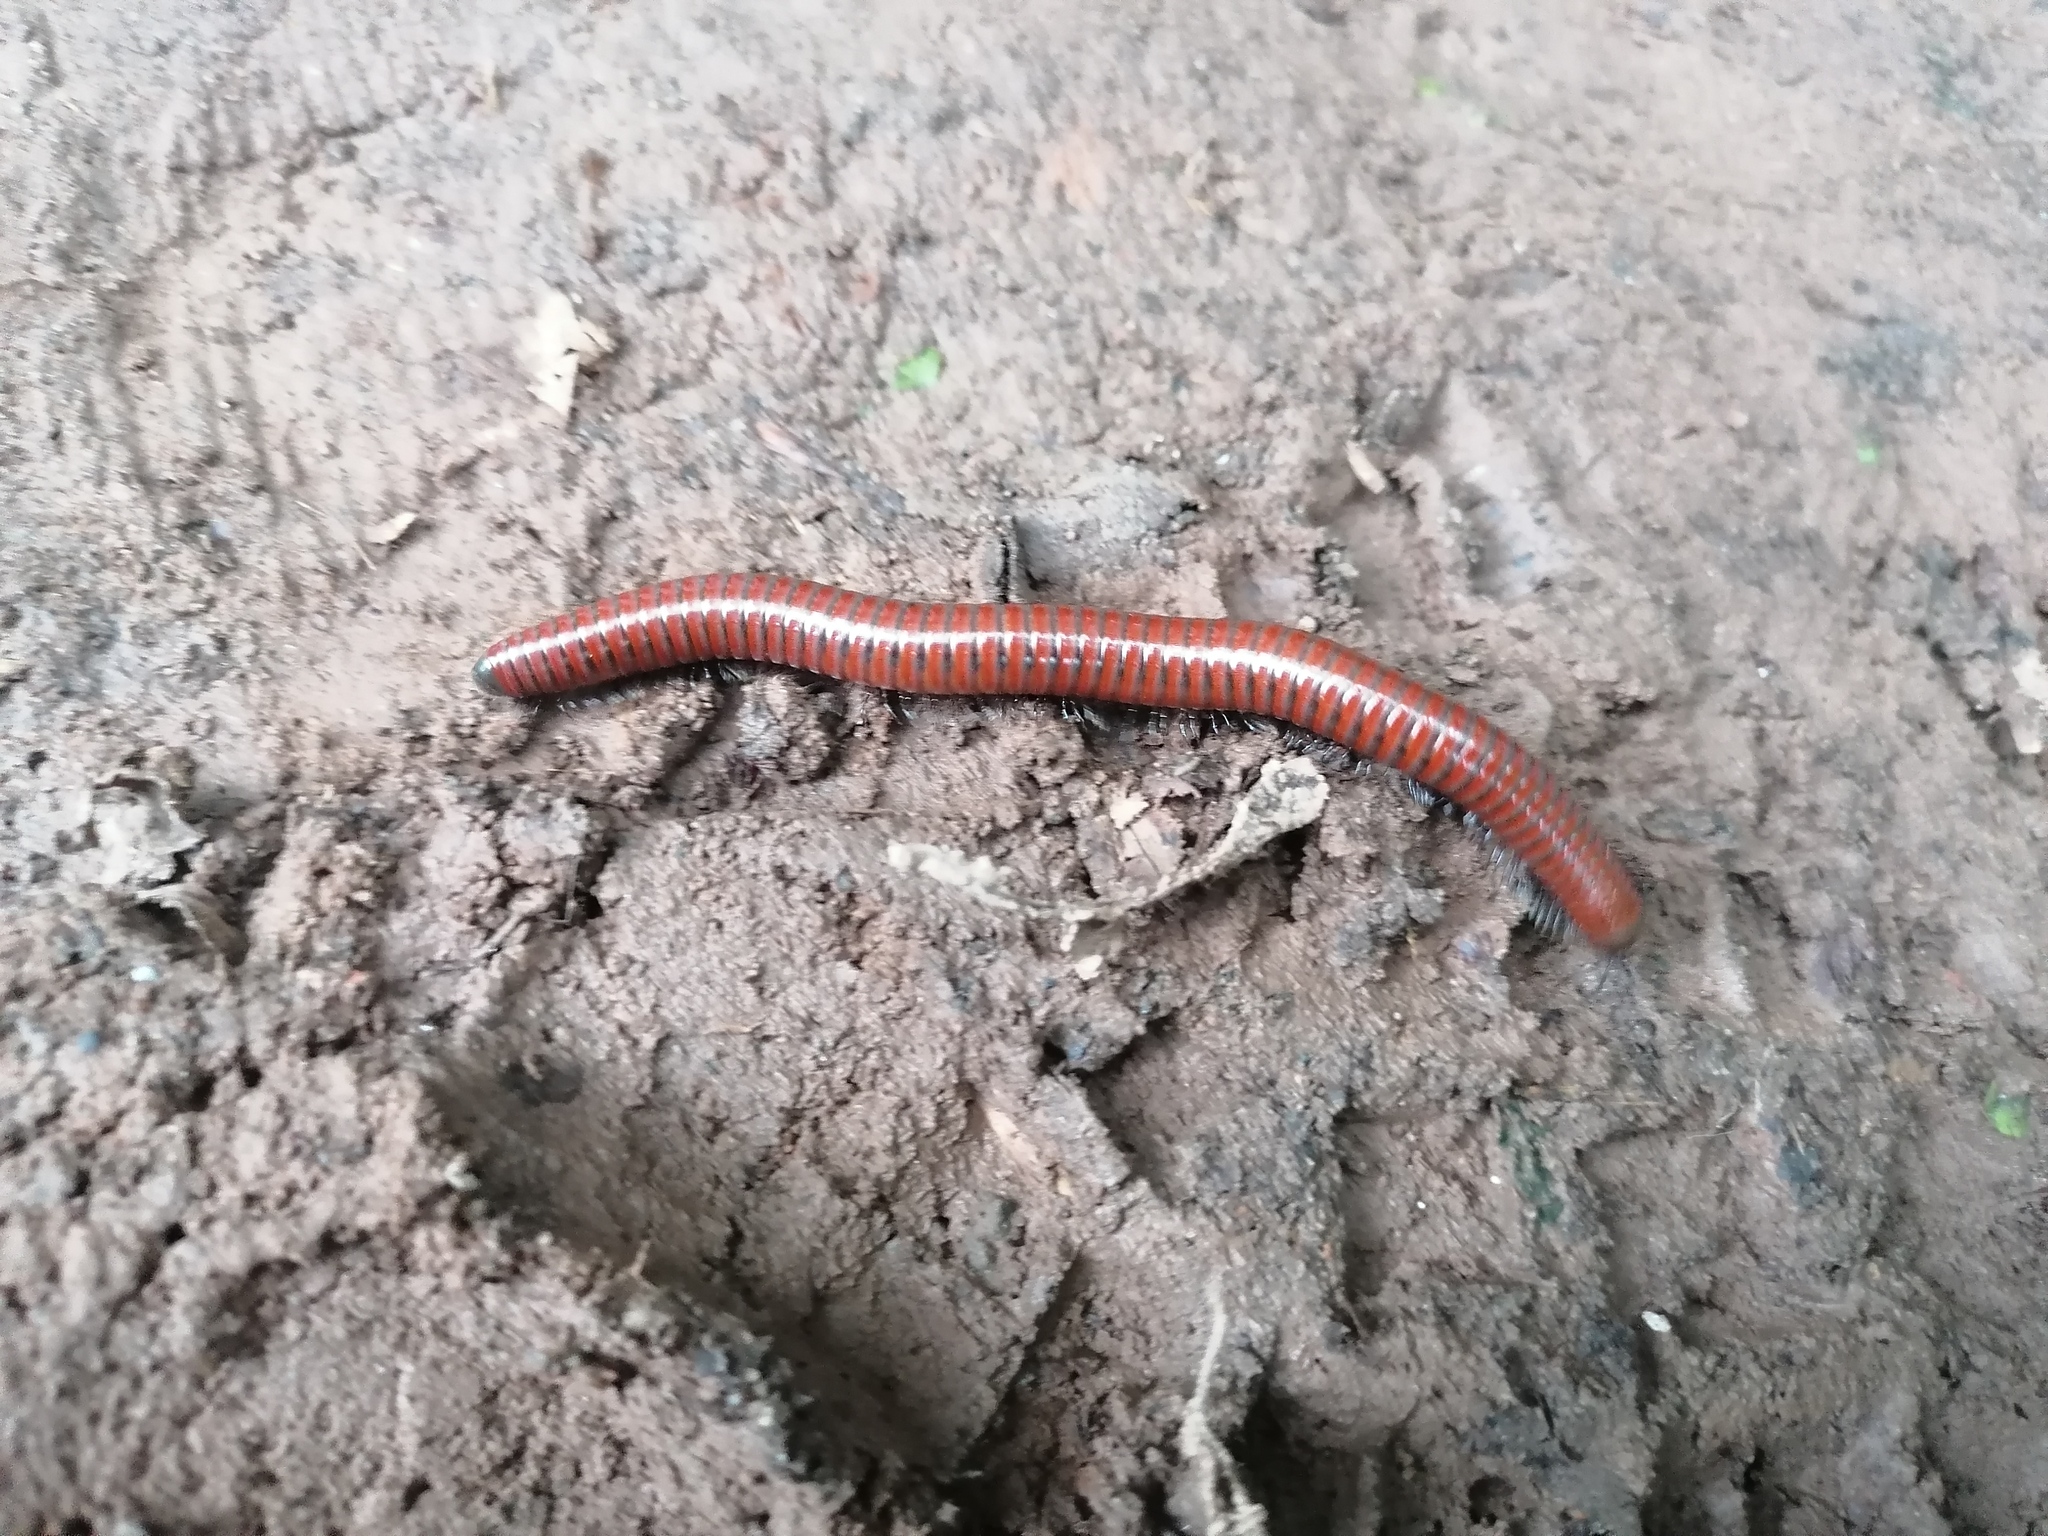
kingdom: Animalia
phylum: Arthropoda
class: Diplopoda
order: Julida
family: Julidae
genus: Pachyiulus
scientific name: Pachyiulus hungaricus
